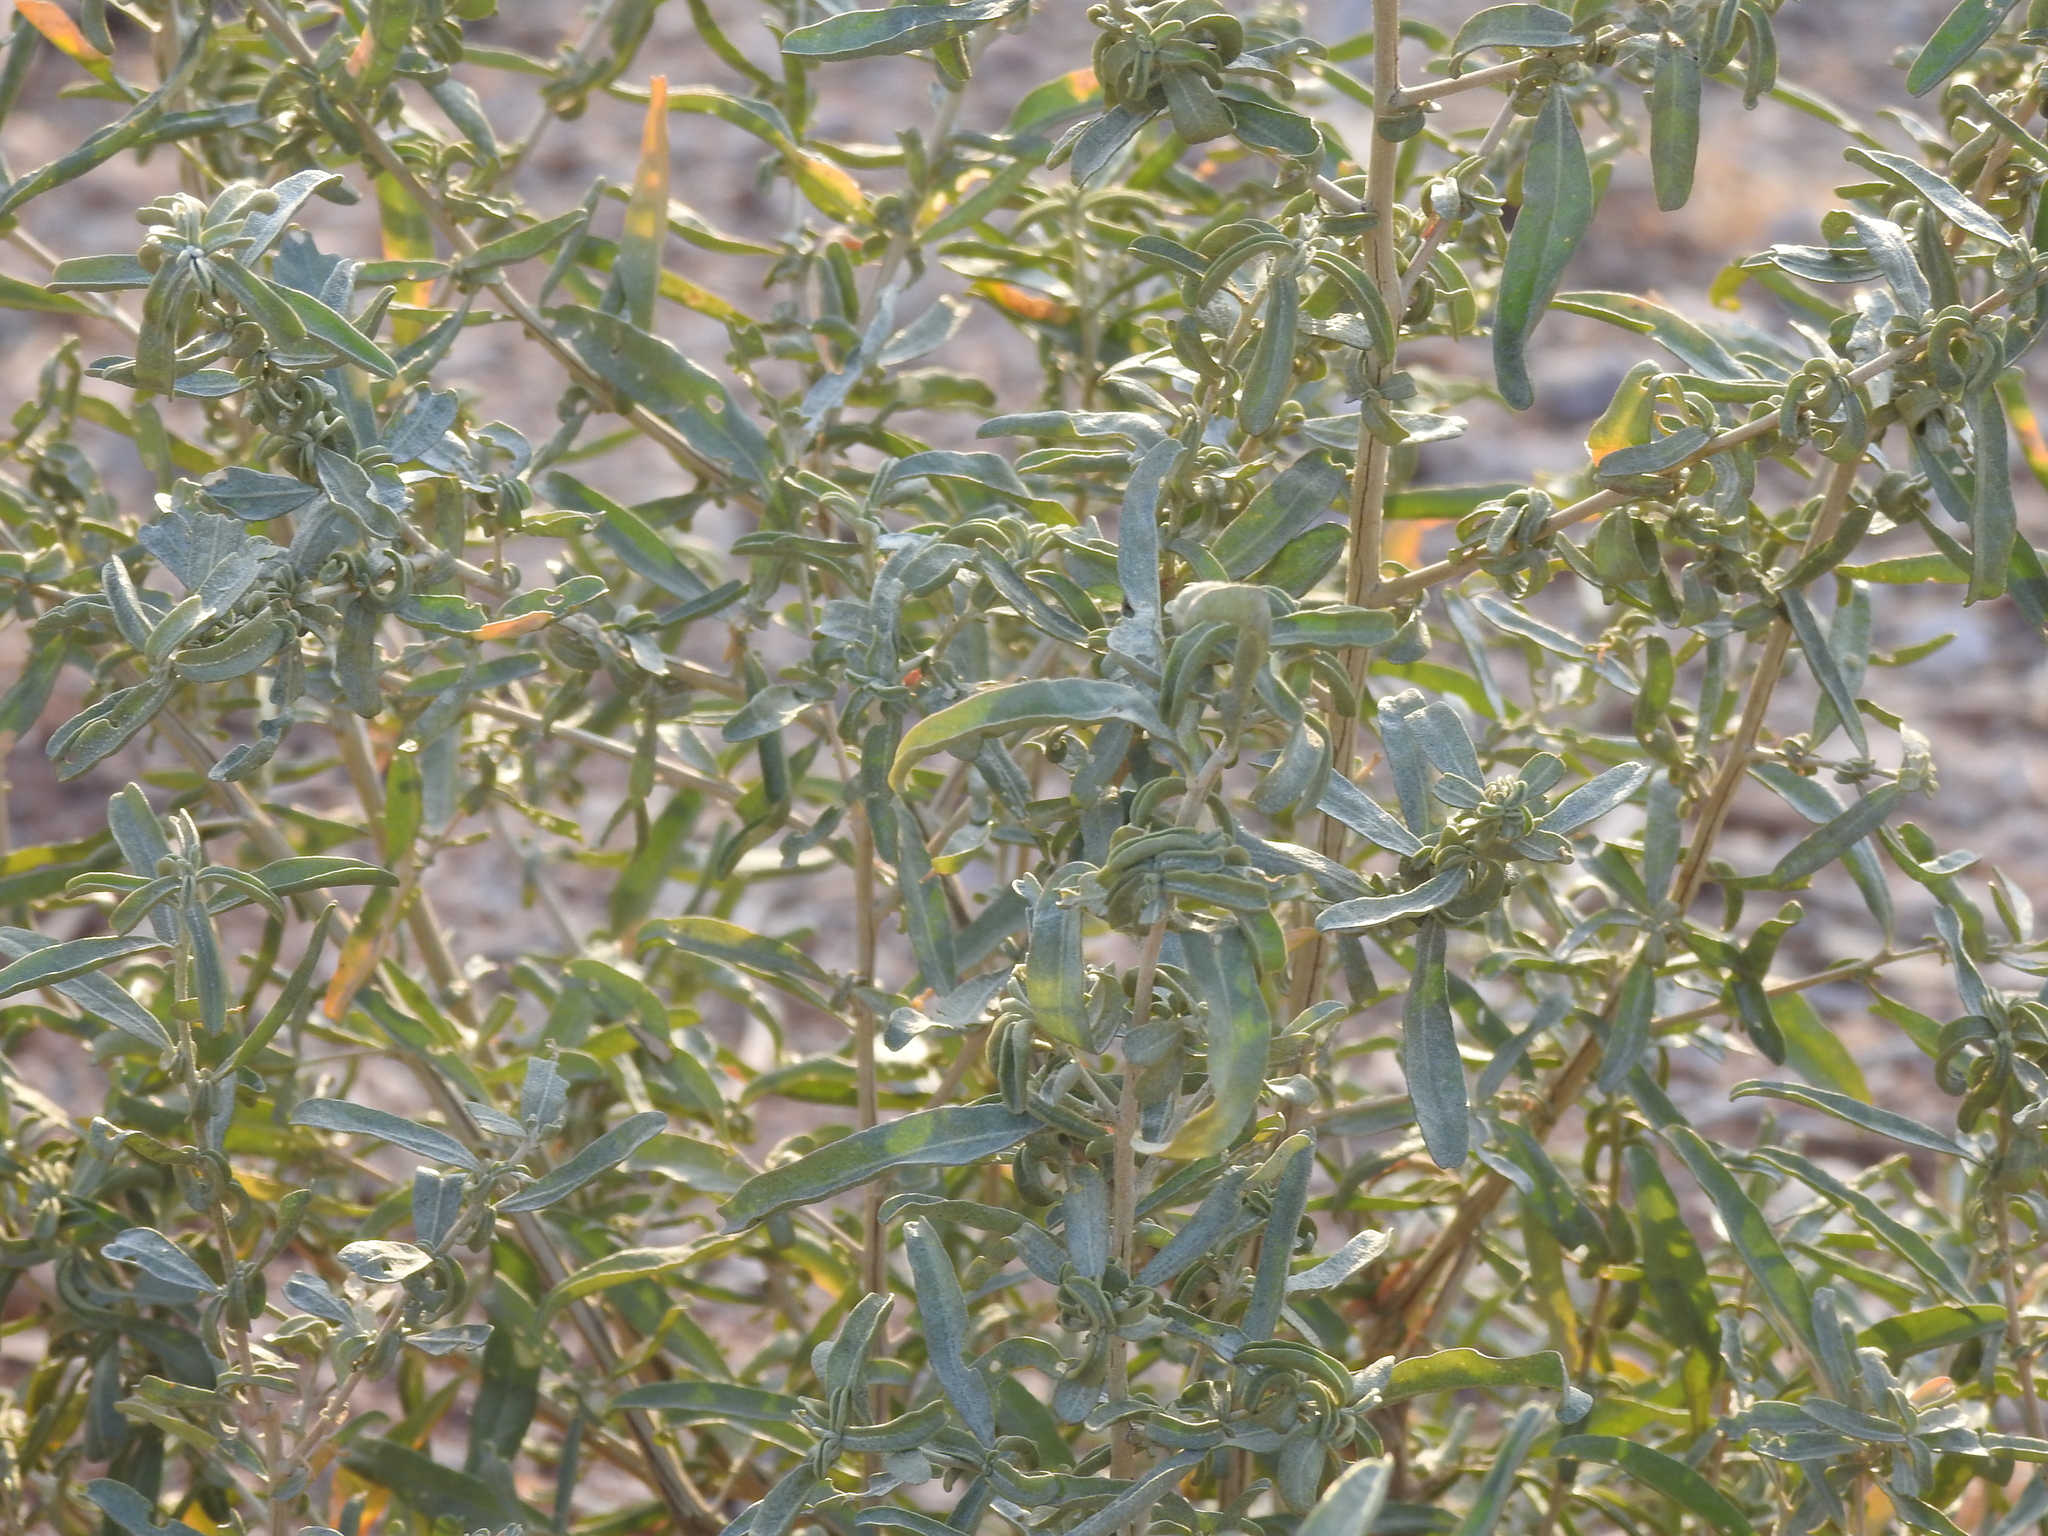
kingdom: Plantae
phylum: Tracheophyta
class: Magnoliopsida
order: Caryophyllales
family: Amaranthaceae
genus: Atriplex
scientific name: Atriplex canescens
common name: Four-wing saltbush
